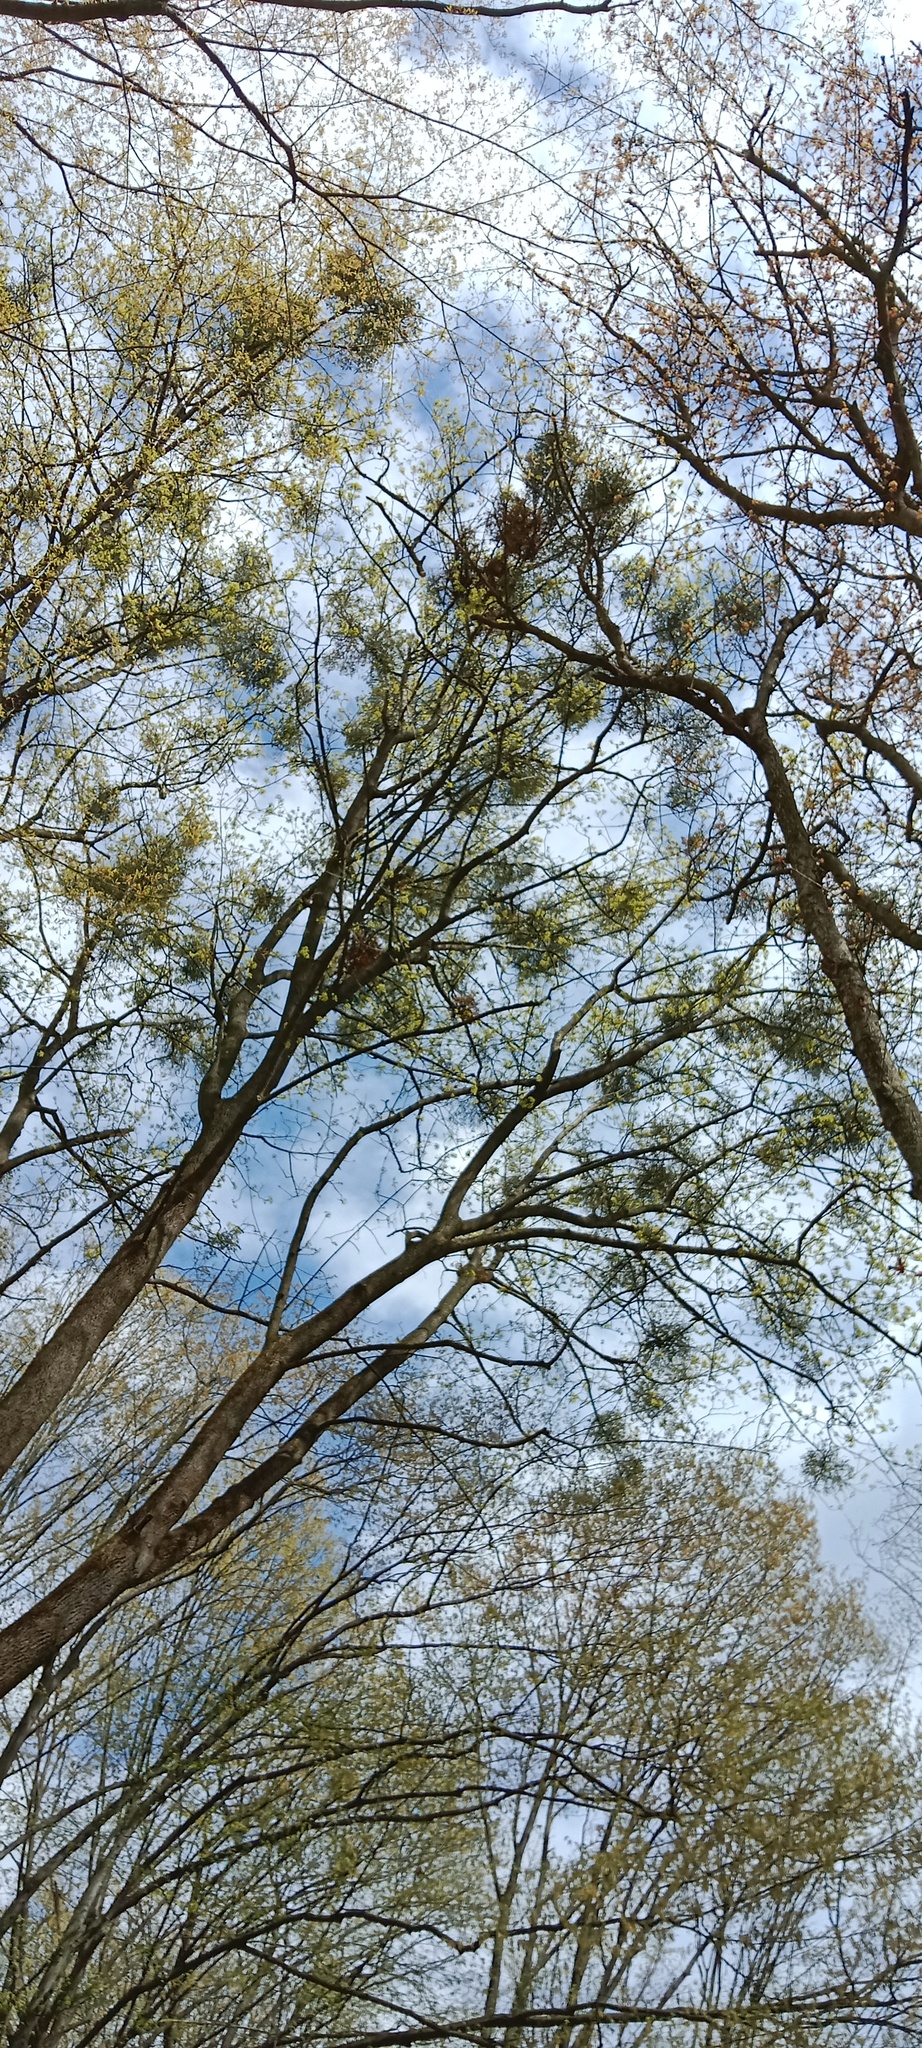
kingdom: Plantae
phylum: Tracheophyta
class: Magnoliopsida
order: Santalales
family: Viscaceae
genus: Viscum
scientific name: Viscum album
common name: Mistletoe
